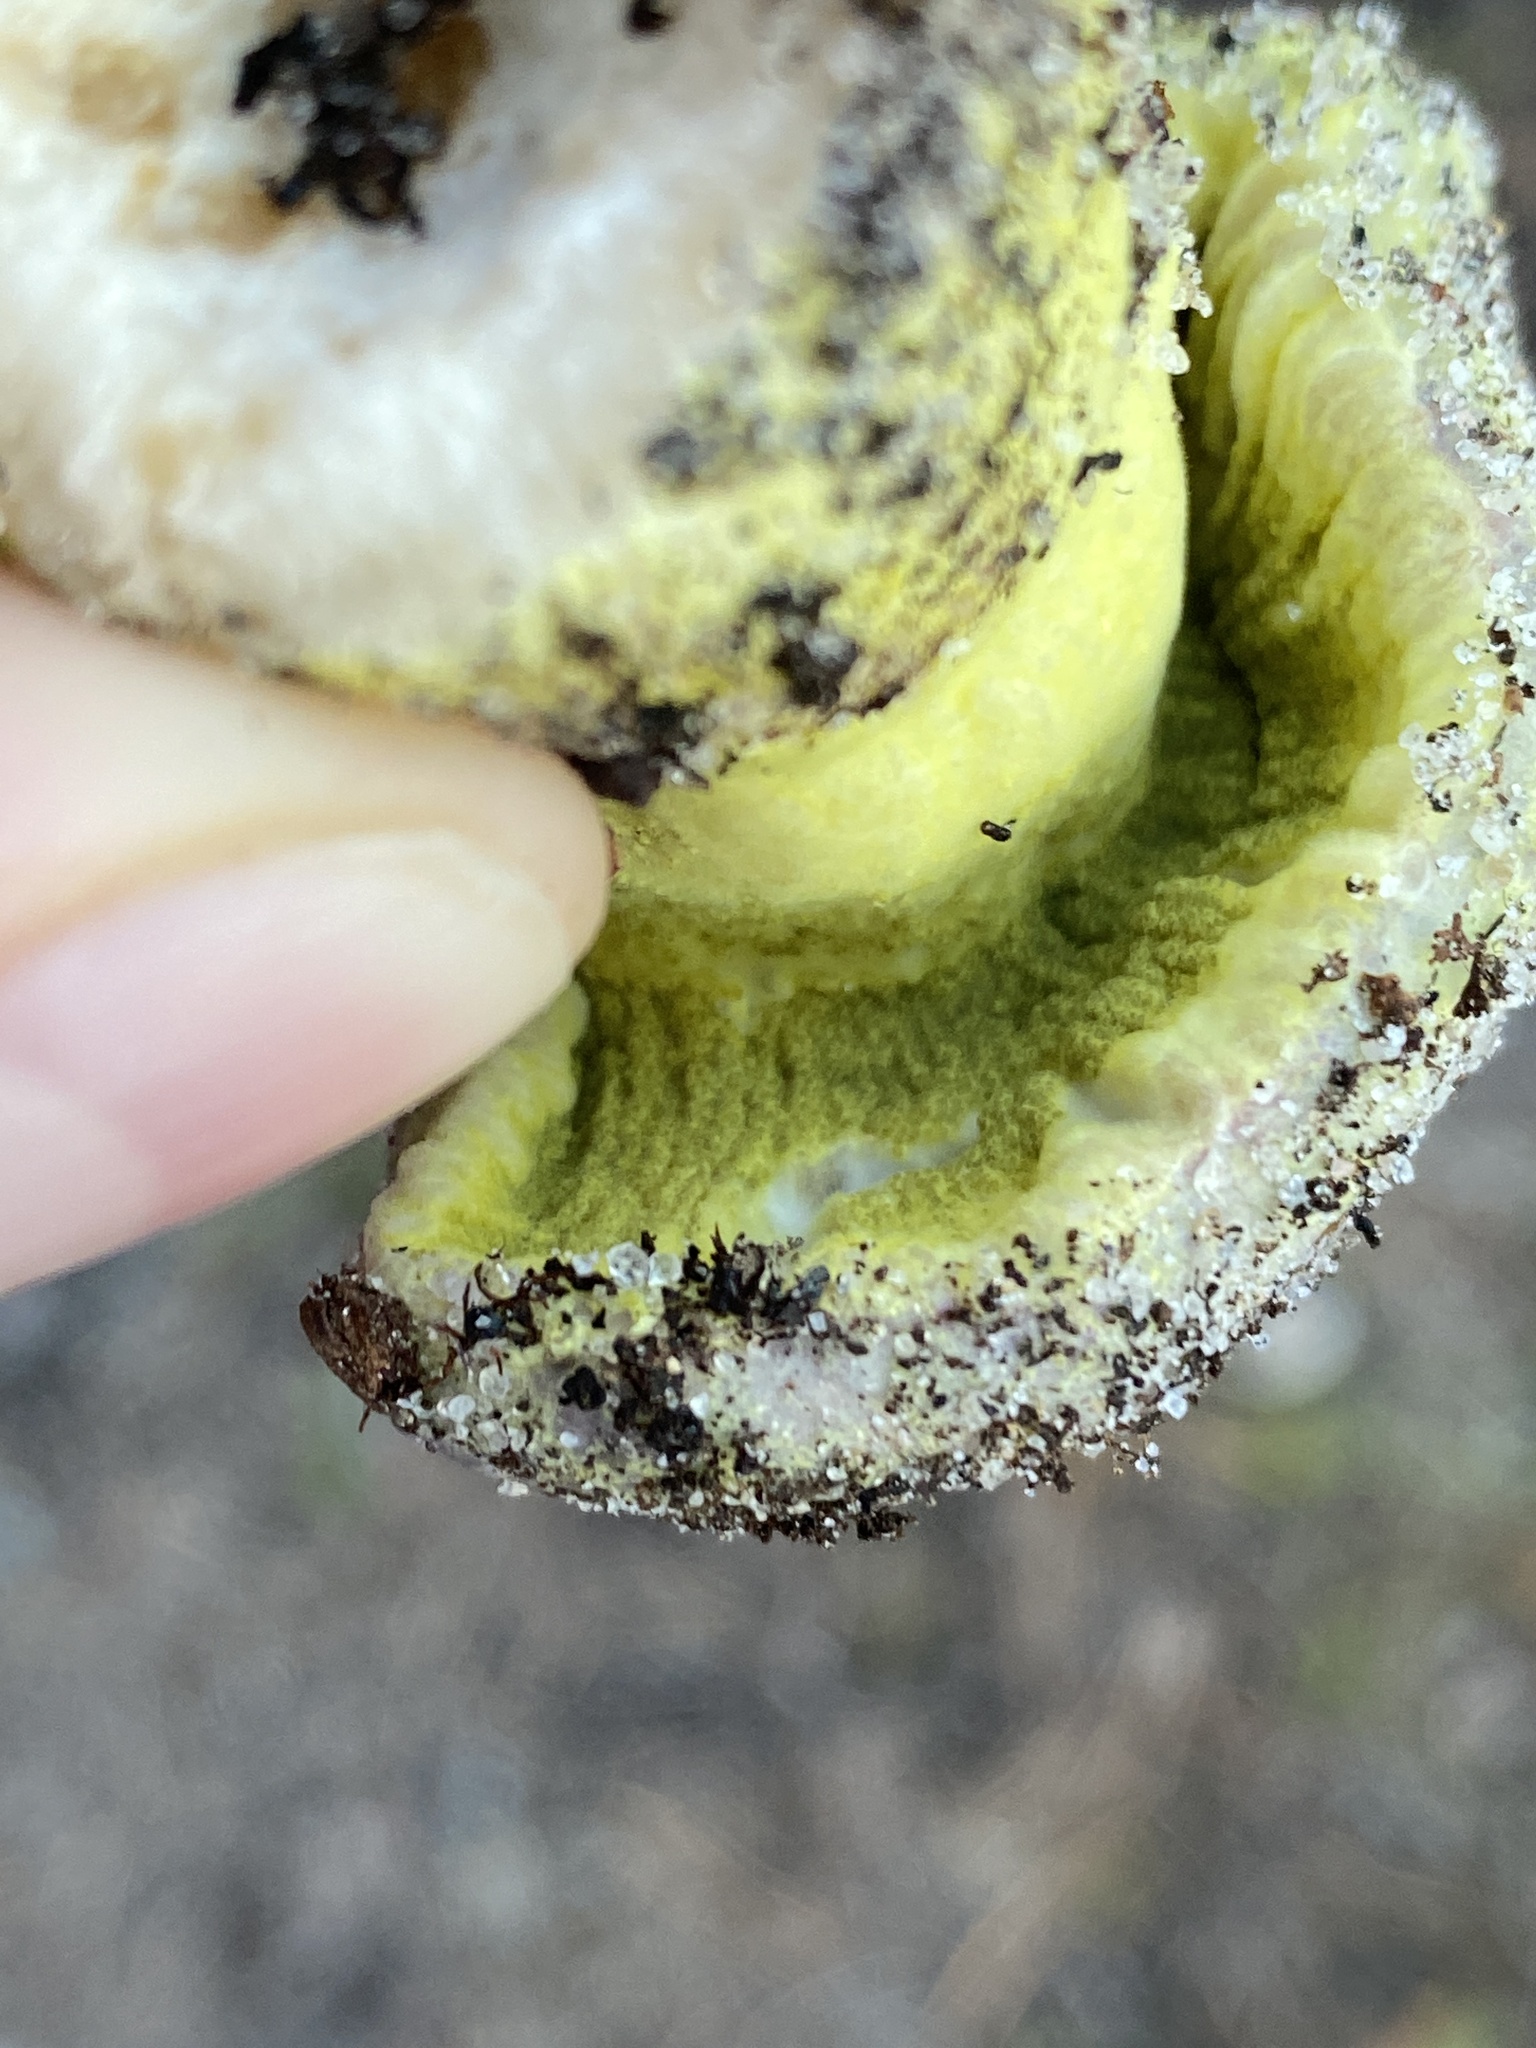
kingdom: Fungi
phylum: Ascomycota
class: Sordariomycetes
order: Hypocreales
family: Hypocreaceae
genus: Hypomyces
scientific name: Hypomyces luteovirens
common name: Yellow-green russula mold
